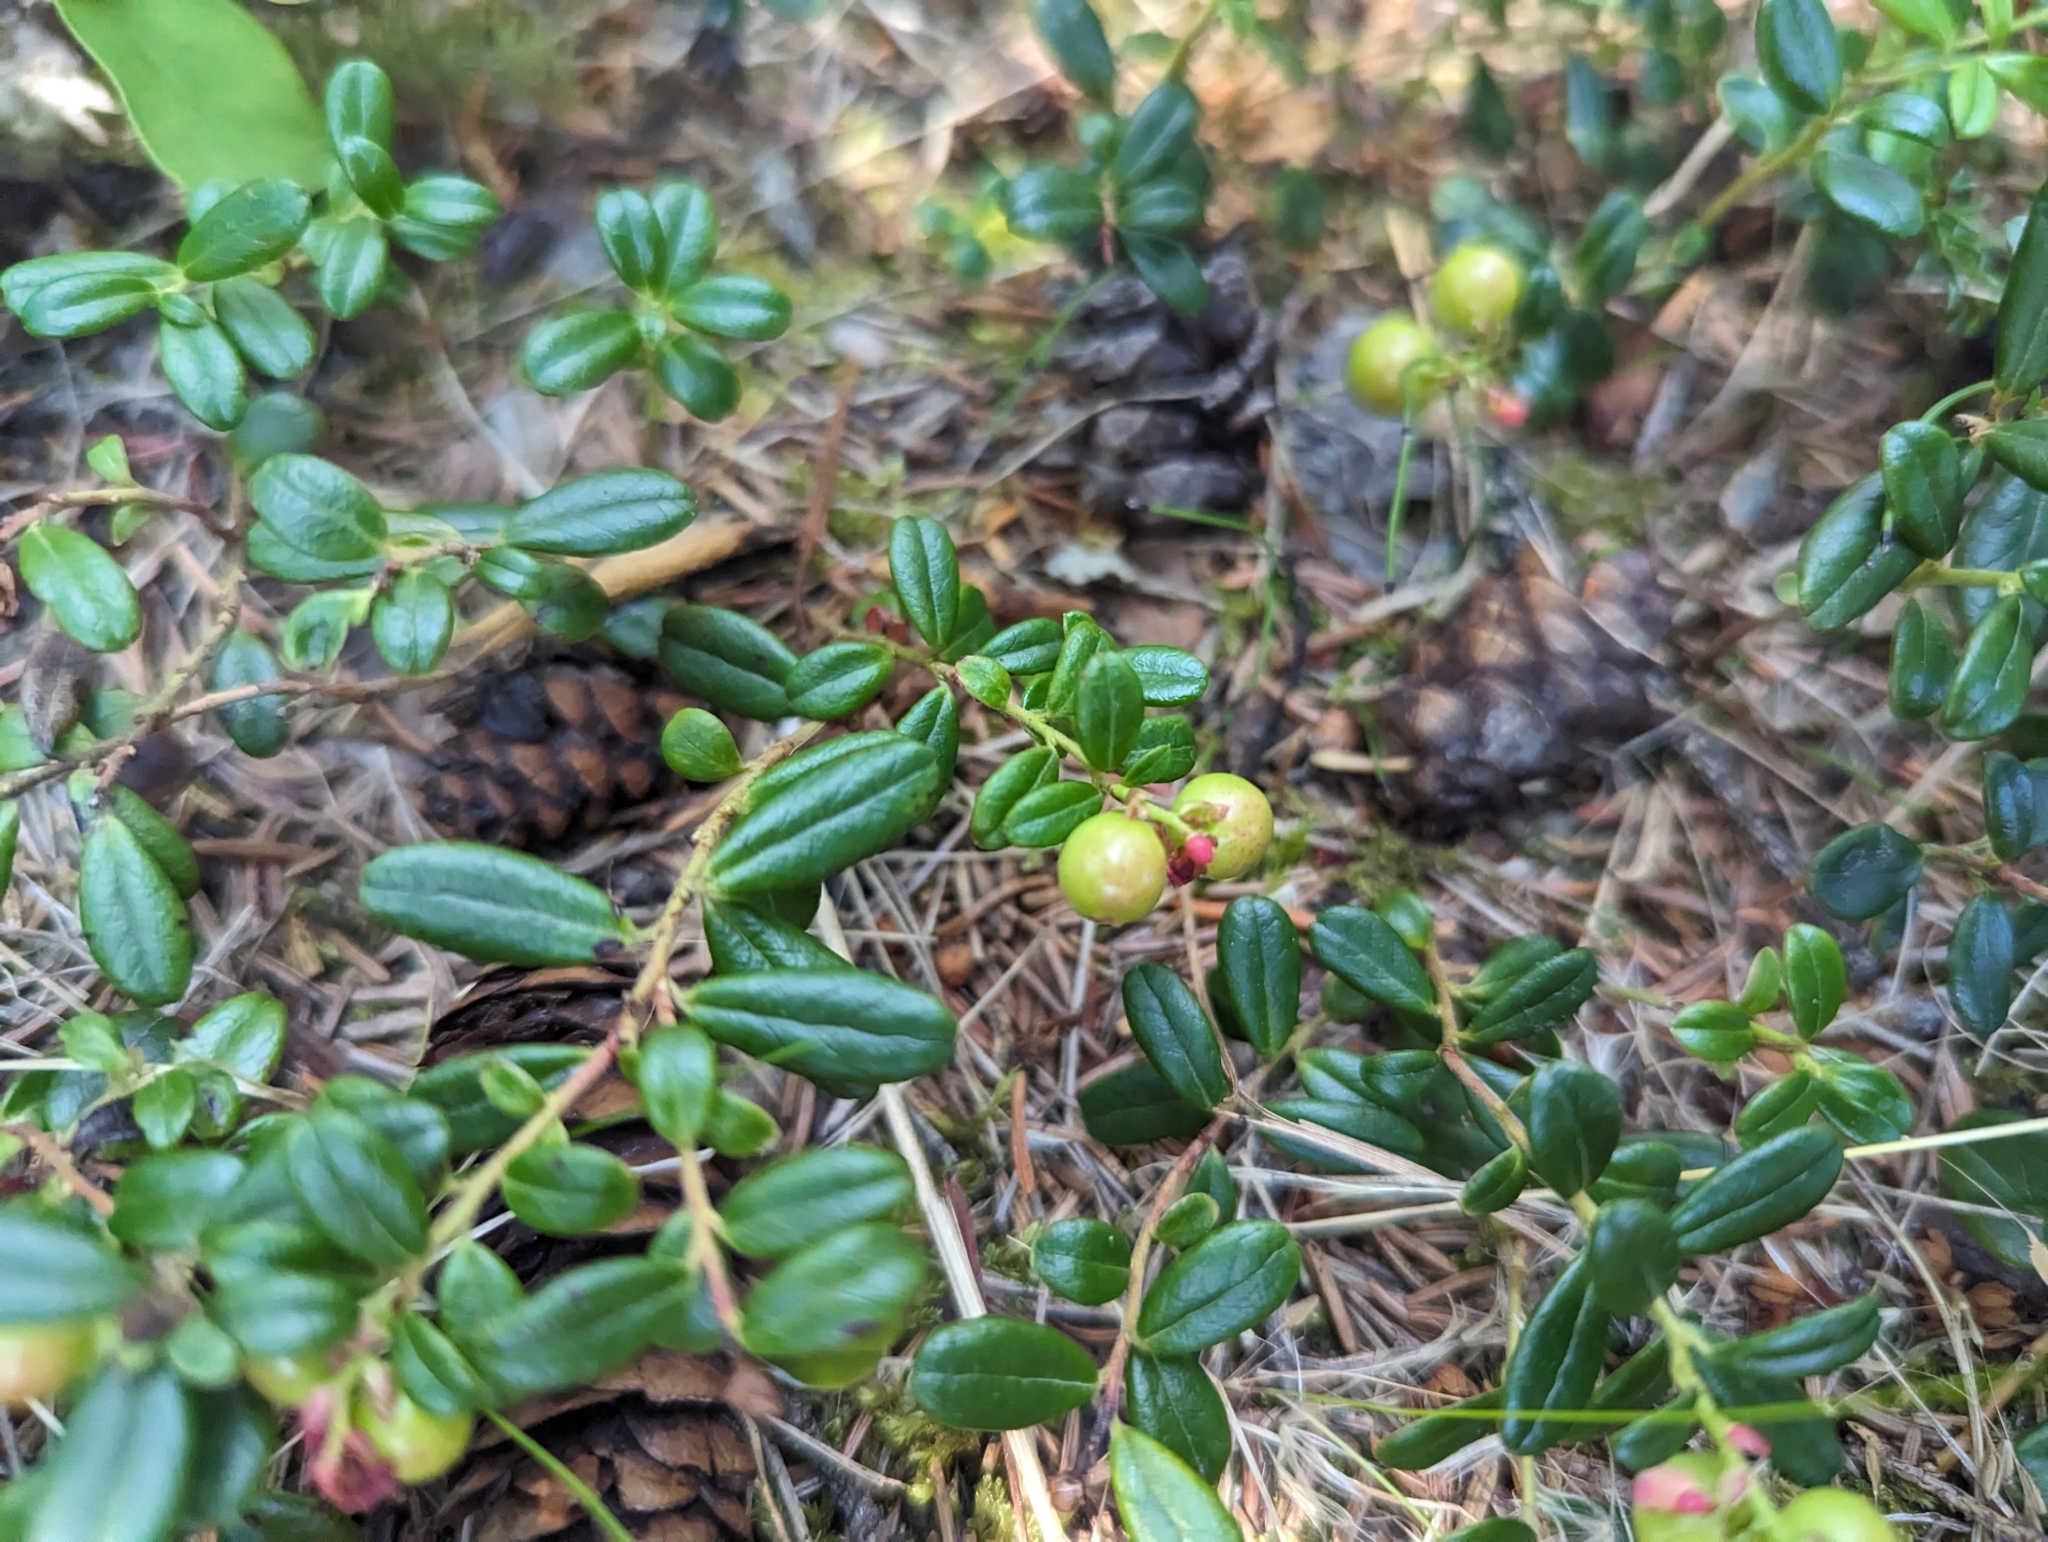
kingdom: Plantae
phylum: Tracheophyta
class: Magnoliopsida
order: Ericales
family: Ericaceae
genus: Vaccinium
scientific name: Vaccinium vitis-idaea
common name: Cowberry
